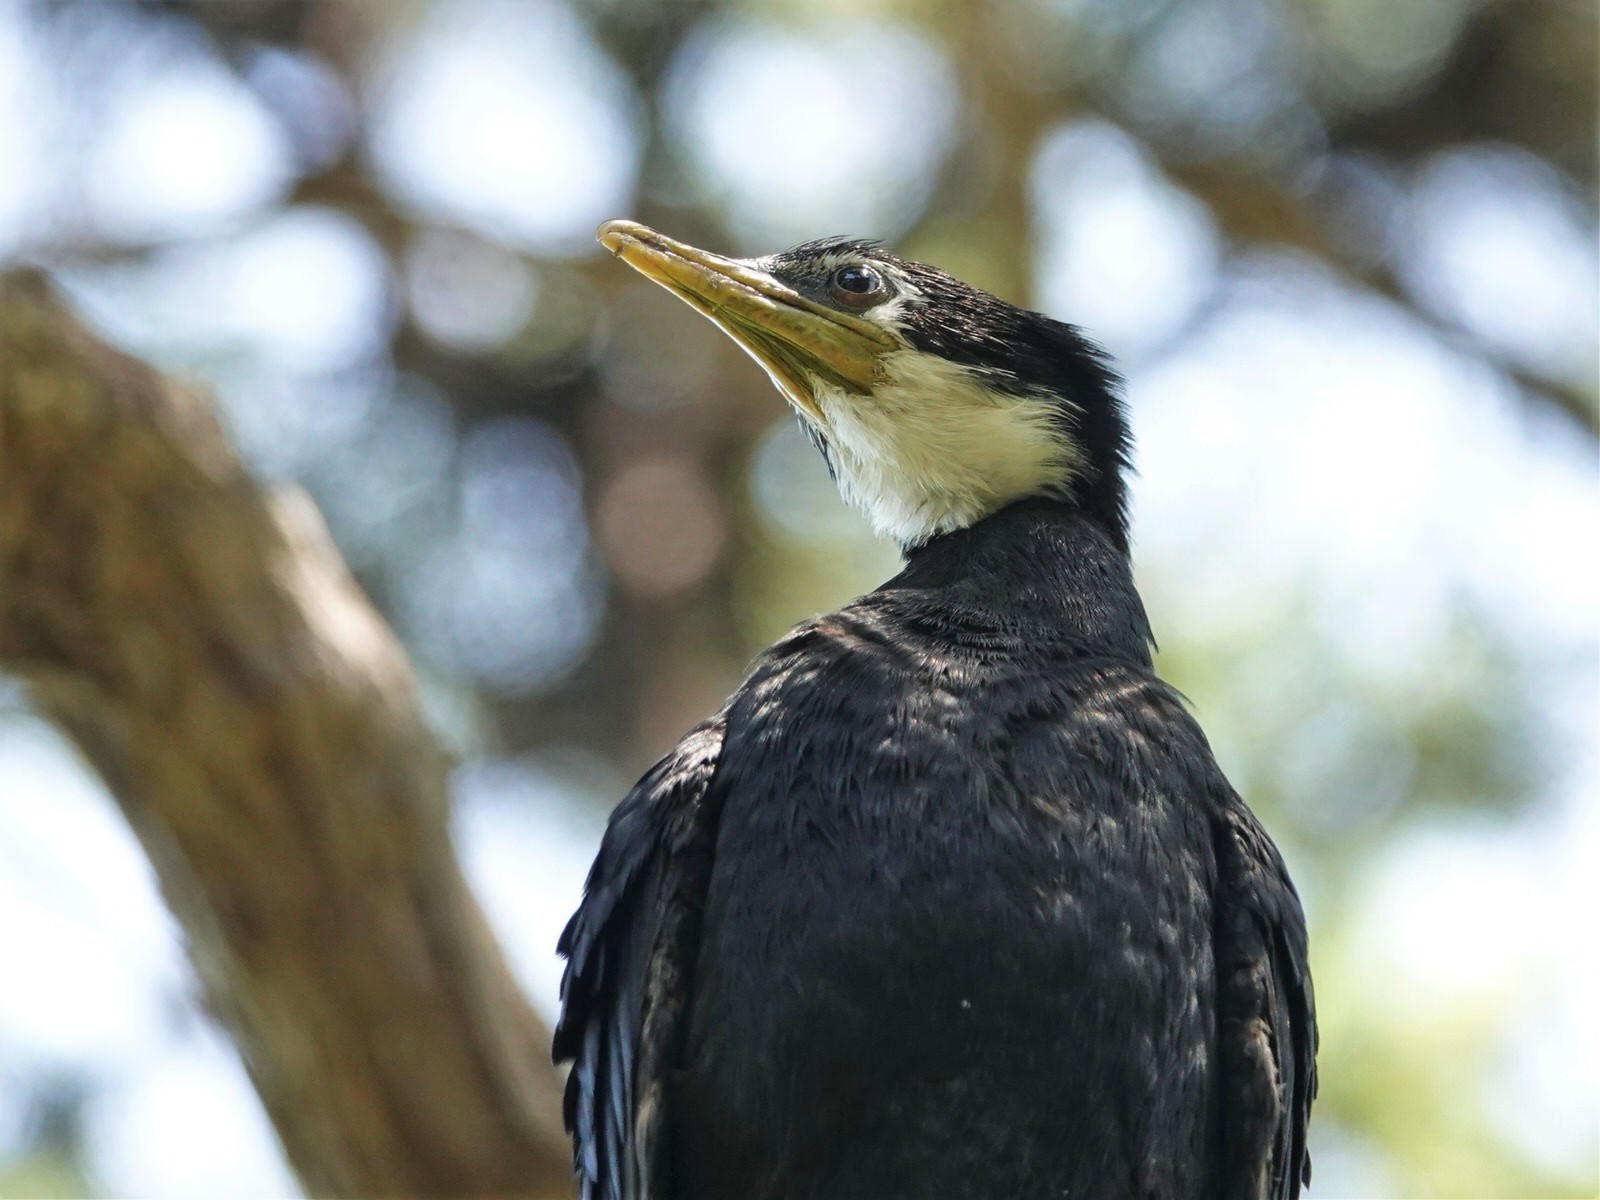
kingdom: Animalia
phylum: Chordata
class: Aves
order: Suliformes
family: Phalacrocoracidae
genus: Microcarbo
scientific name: Microcarbo melanoleucos
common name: Little pied cormorant
